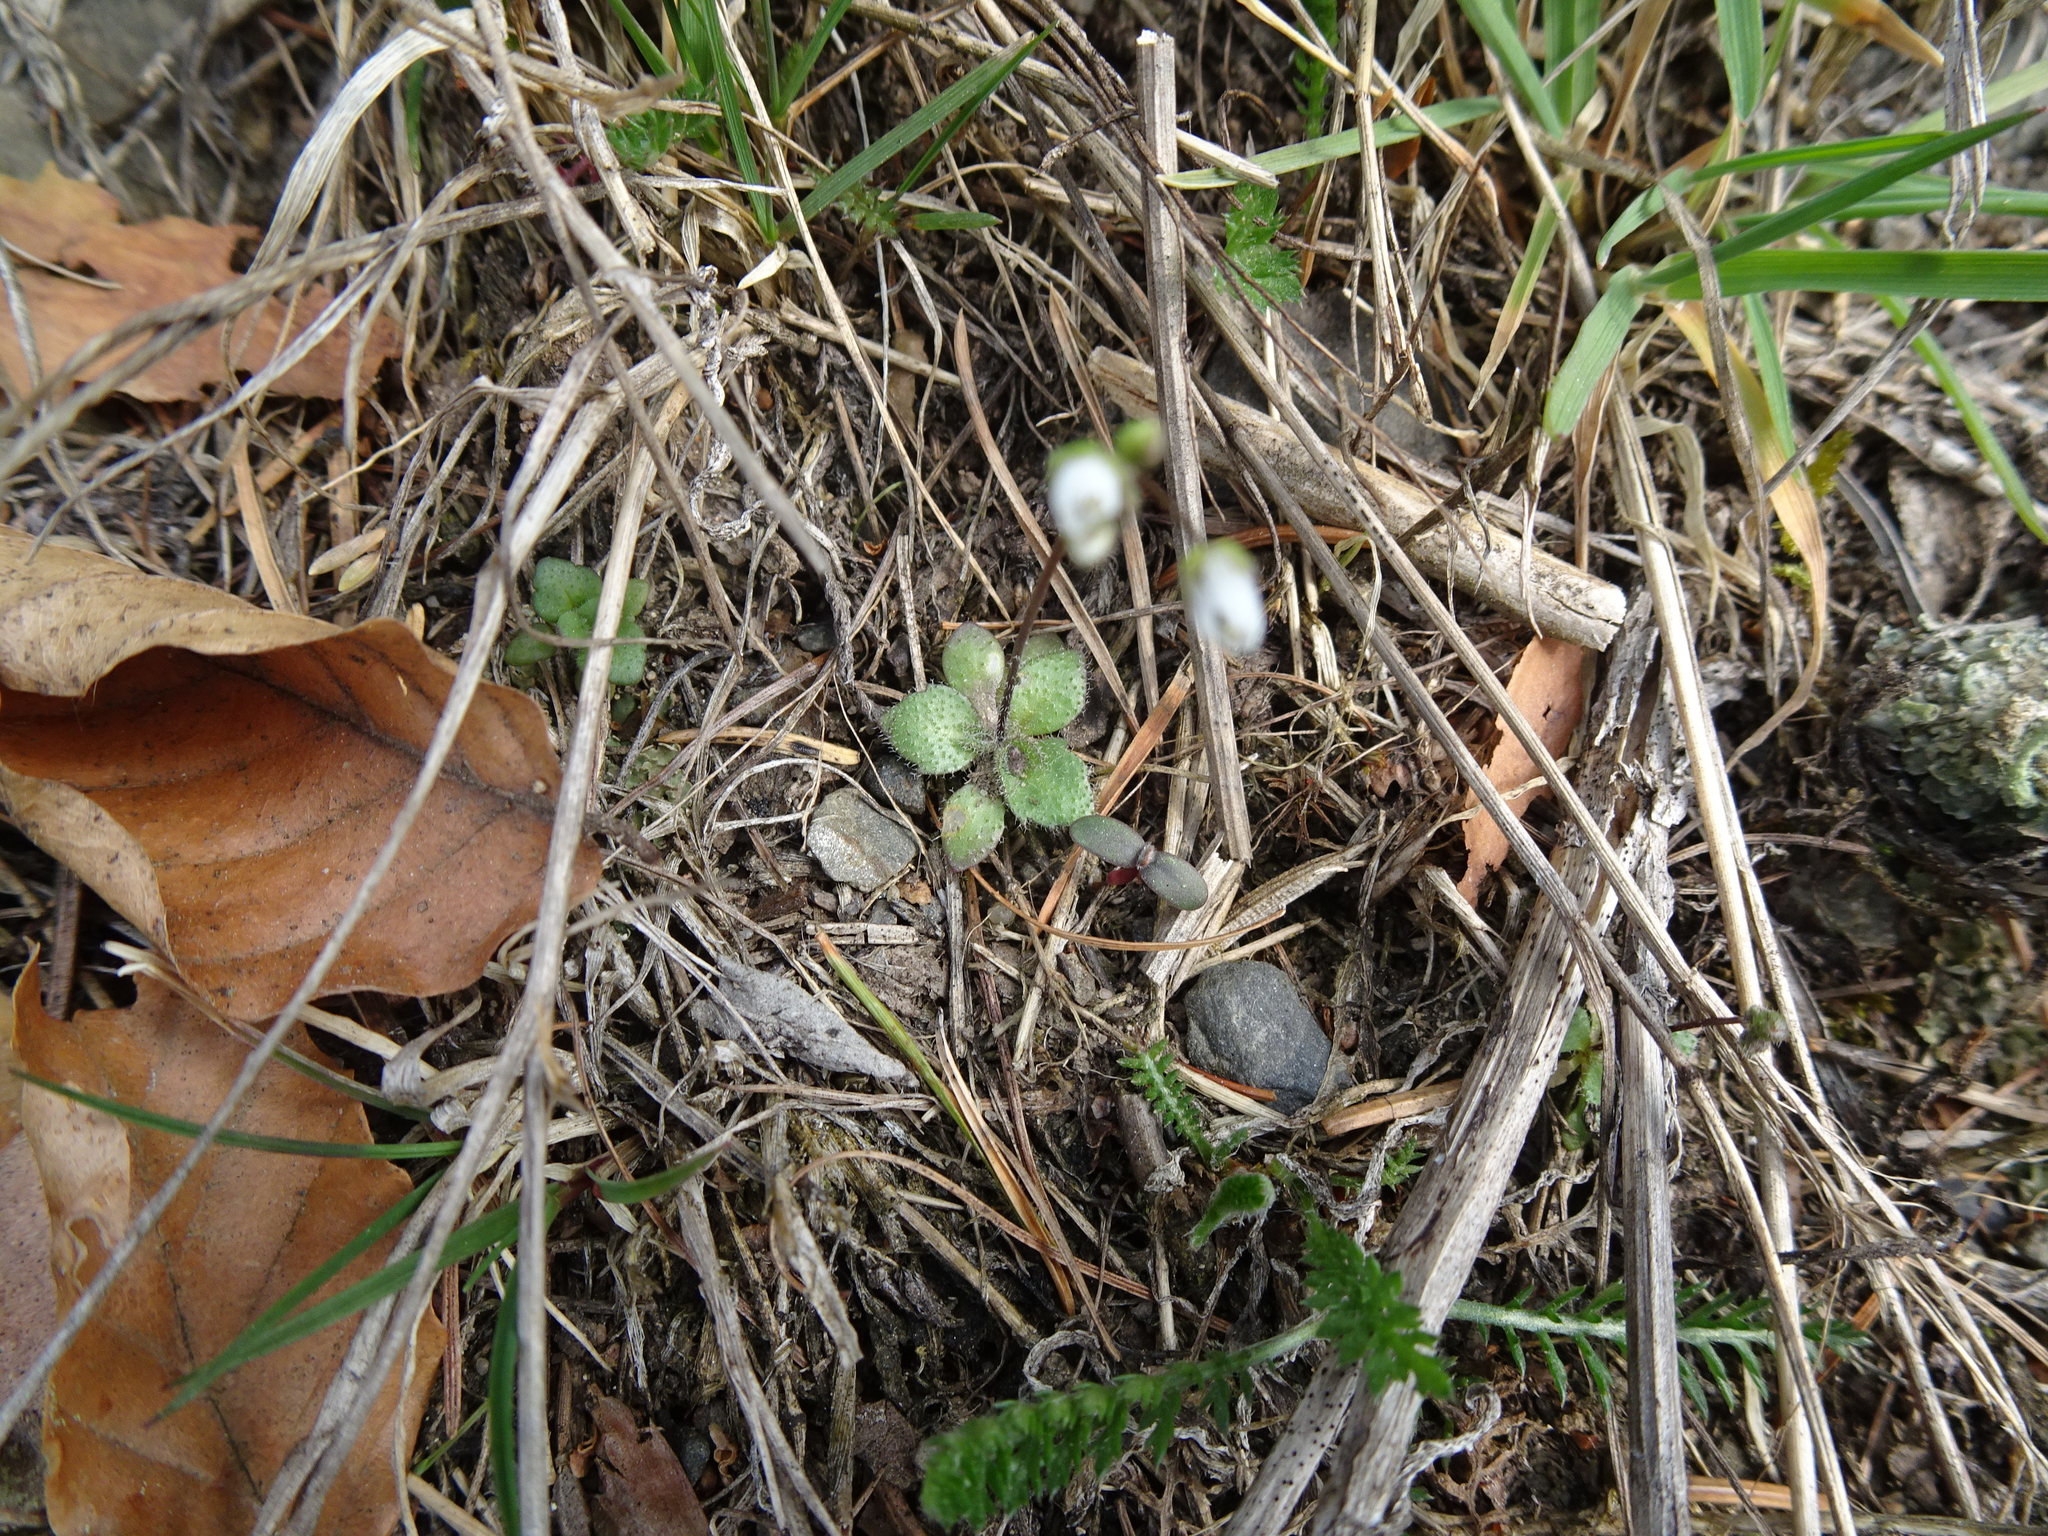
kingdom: Plantae
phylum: Tracheophyta
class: Magnoliopsida
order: Brassicales
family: Brassicaceae
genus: Draba
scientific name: Draba verna
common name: Spring draba
